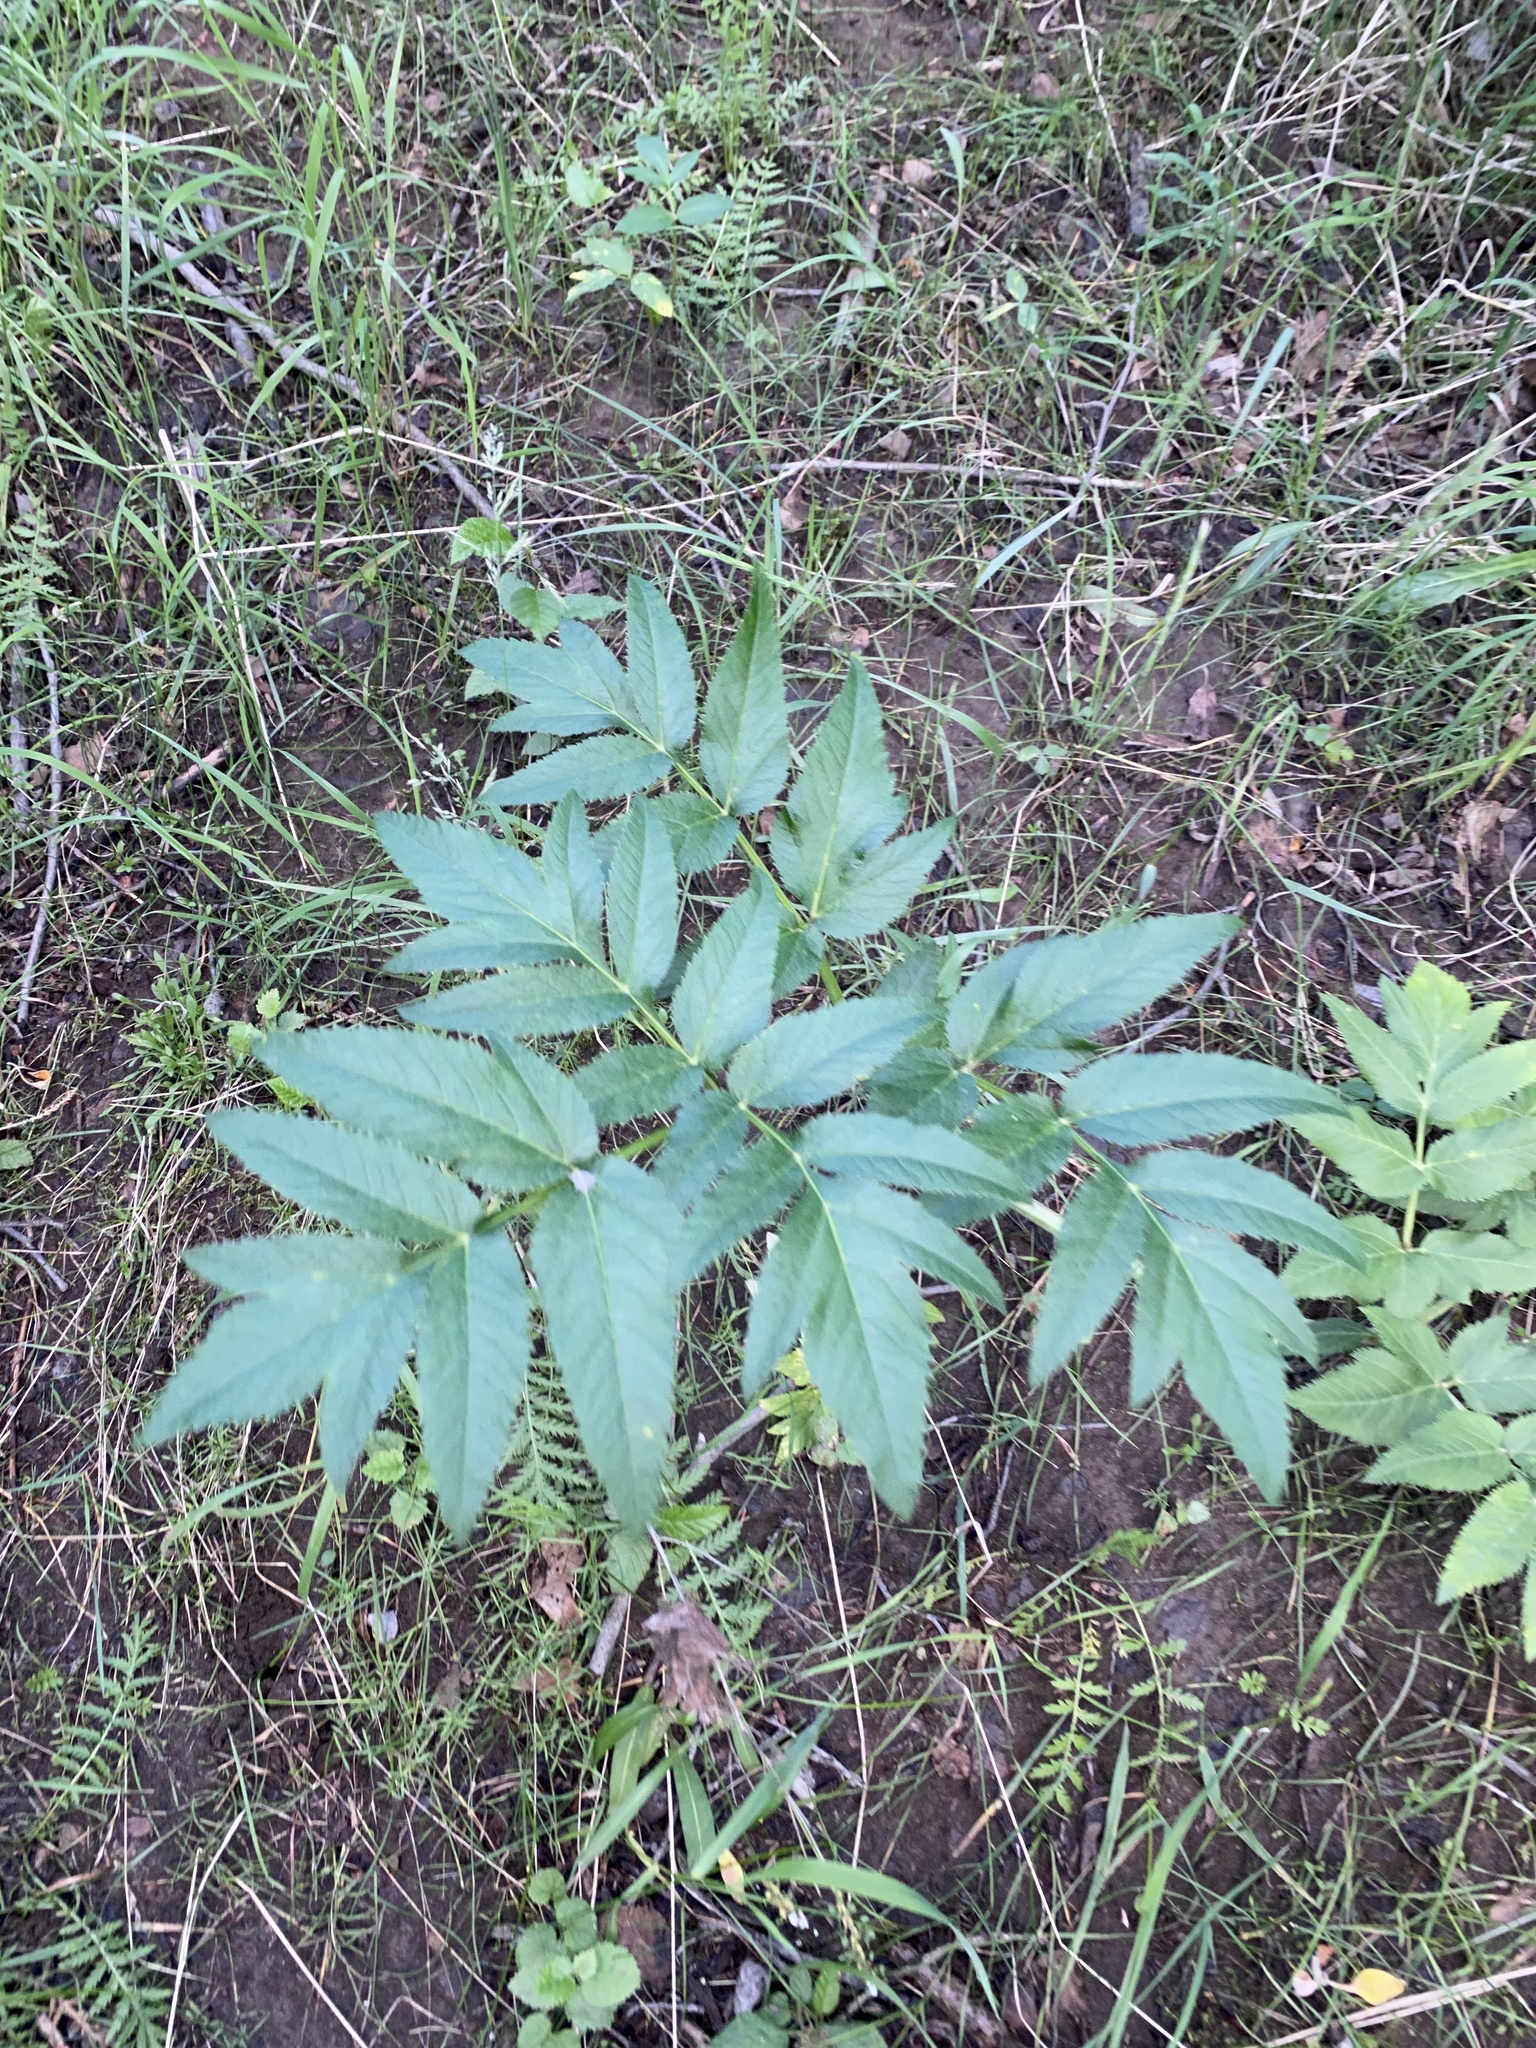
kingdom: Plantae
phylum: Tracheophyta
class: Magnoliopsida
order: Apiales
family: Apiaceae
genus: Angelica
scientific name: Angelica decurrens
